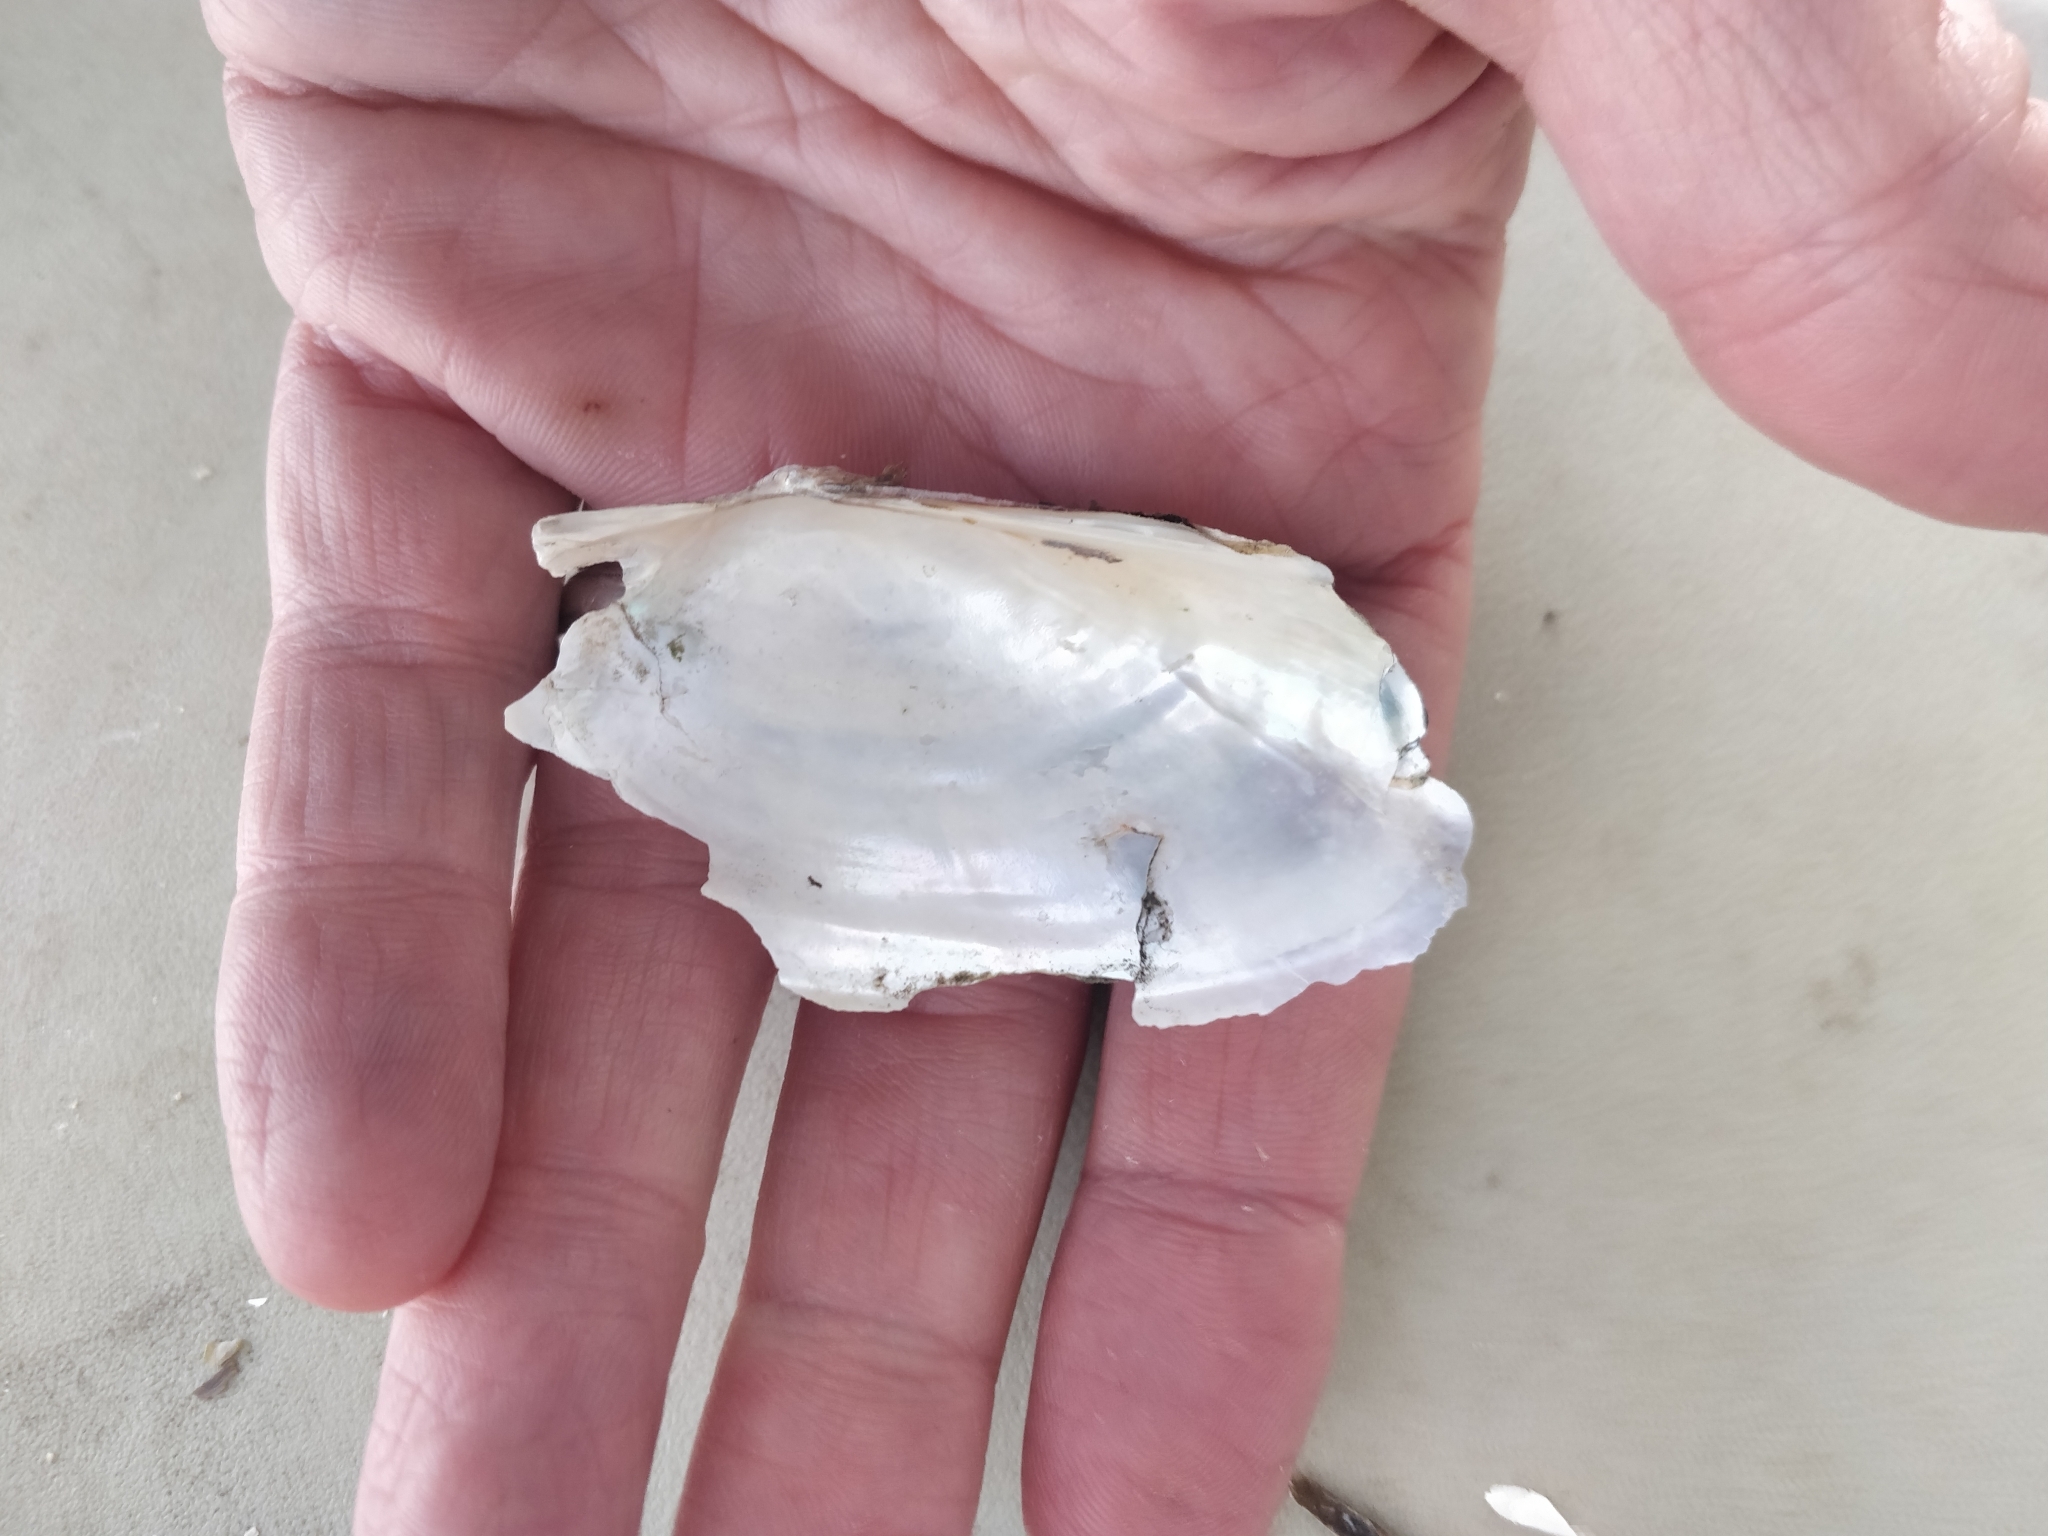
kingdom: Animalia
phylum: Mollusca
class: Bivalvia
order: Unionida
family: Unionidae
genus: Pyganodon
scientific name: Pyganodon grandis
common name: Giant floater
